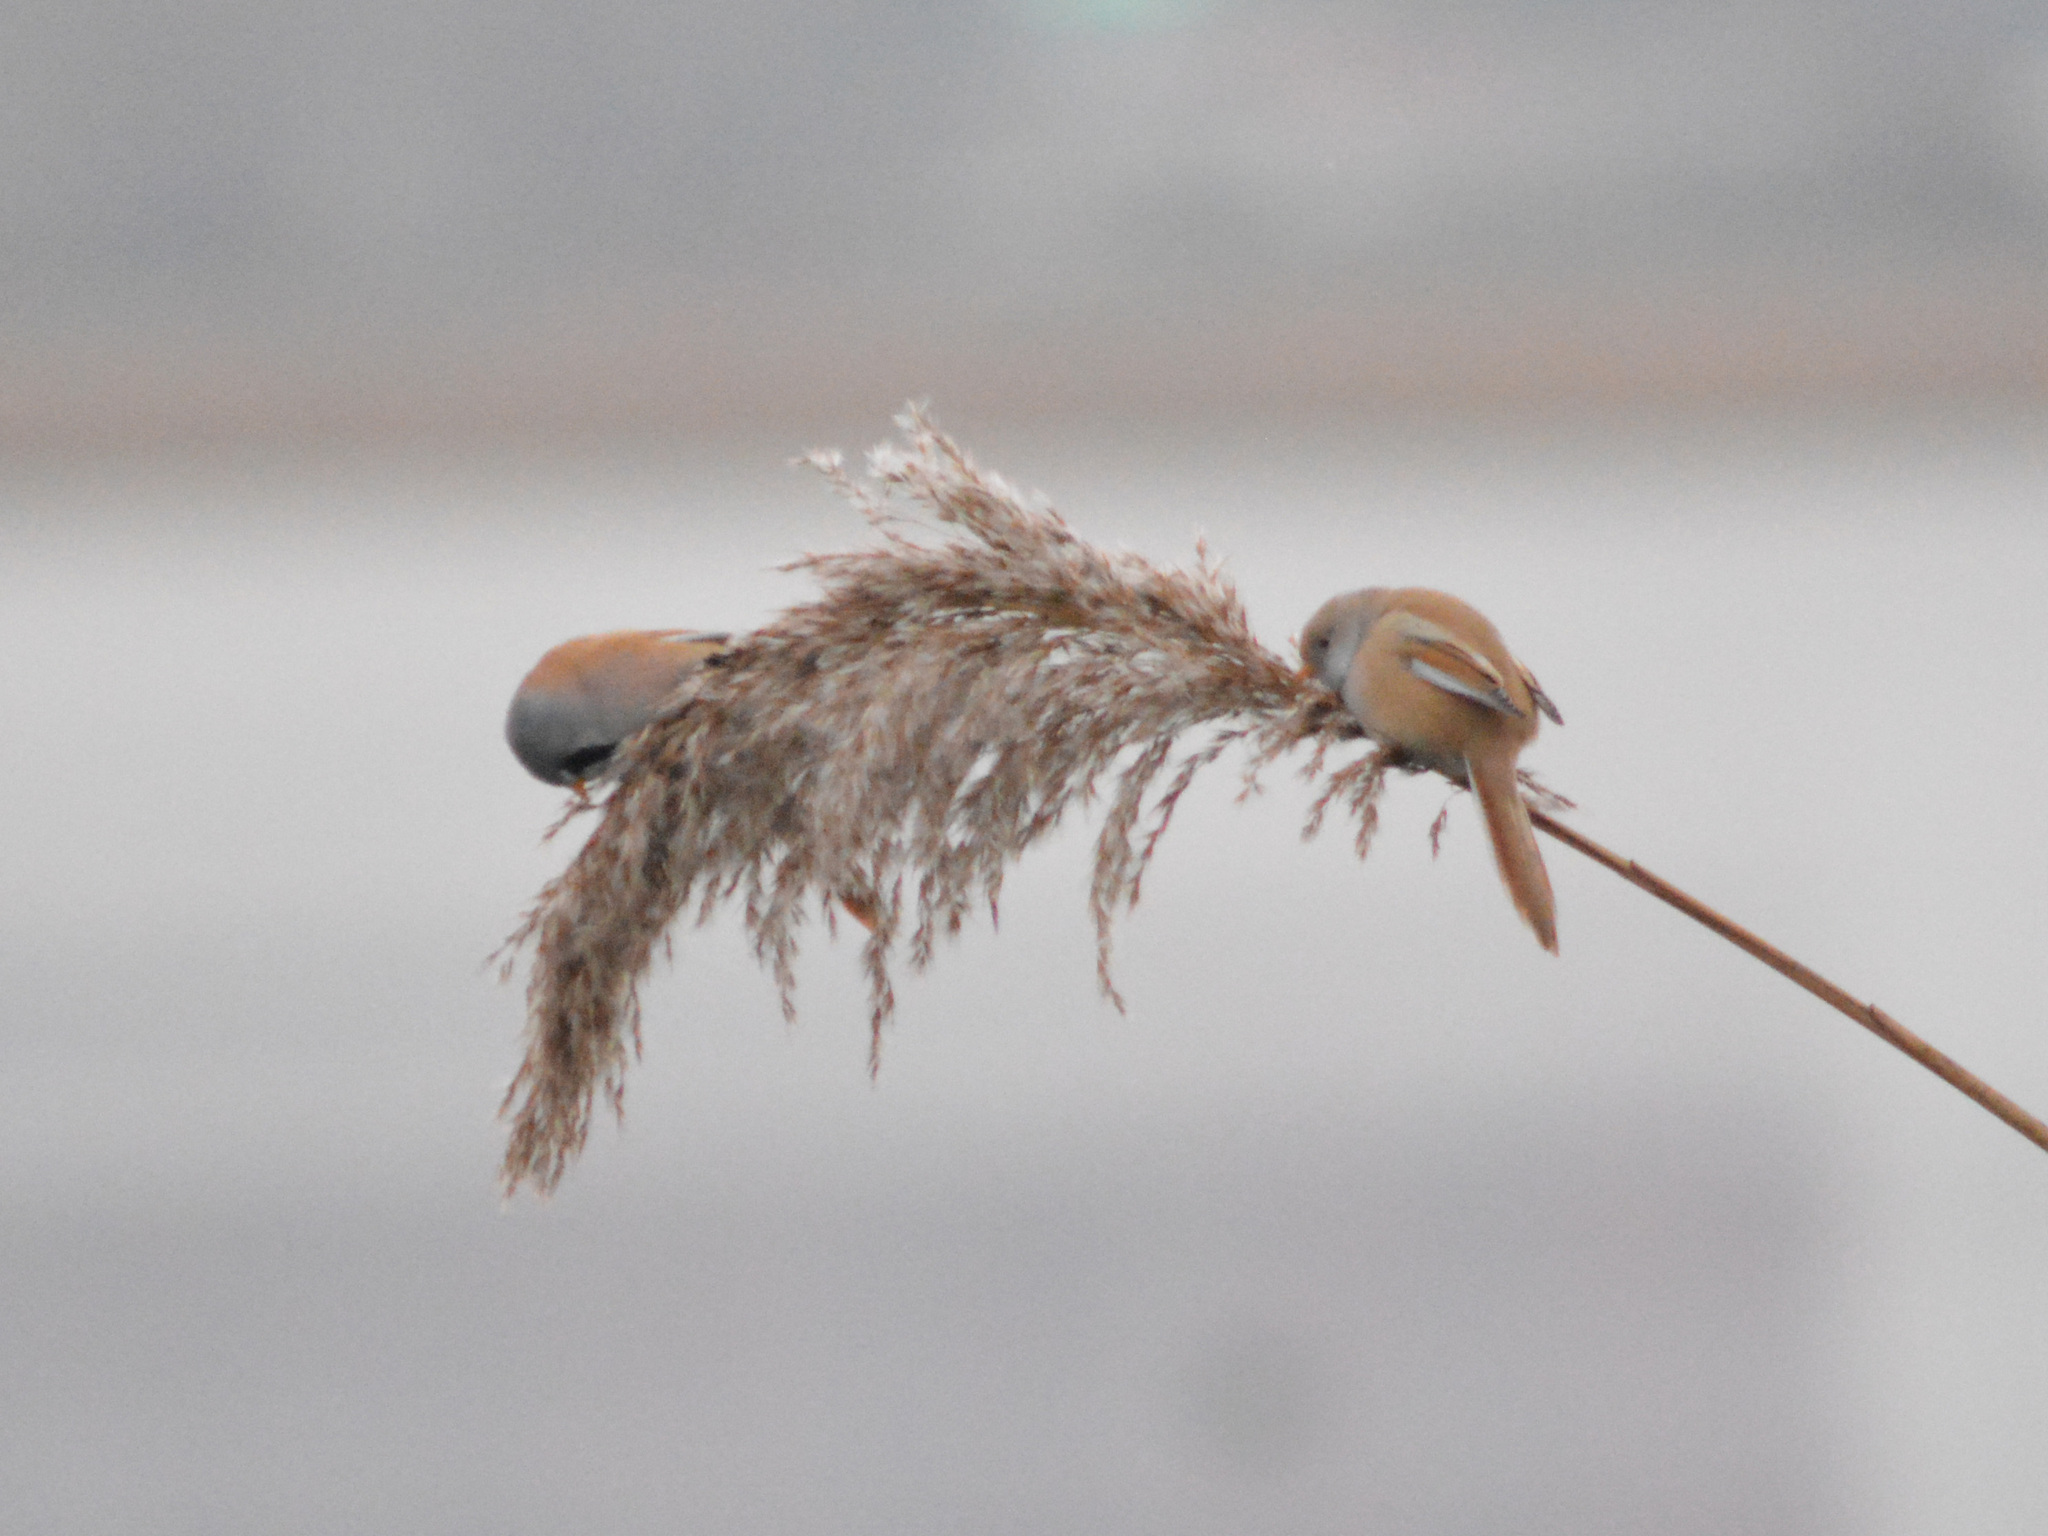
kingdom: Animalia
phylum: Chordata
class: Aves
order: Passeriformes
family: Panuridae
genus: Panurus
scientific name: Panurus biarmicus
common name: Bearded reedling
